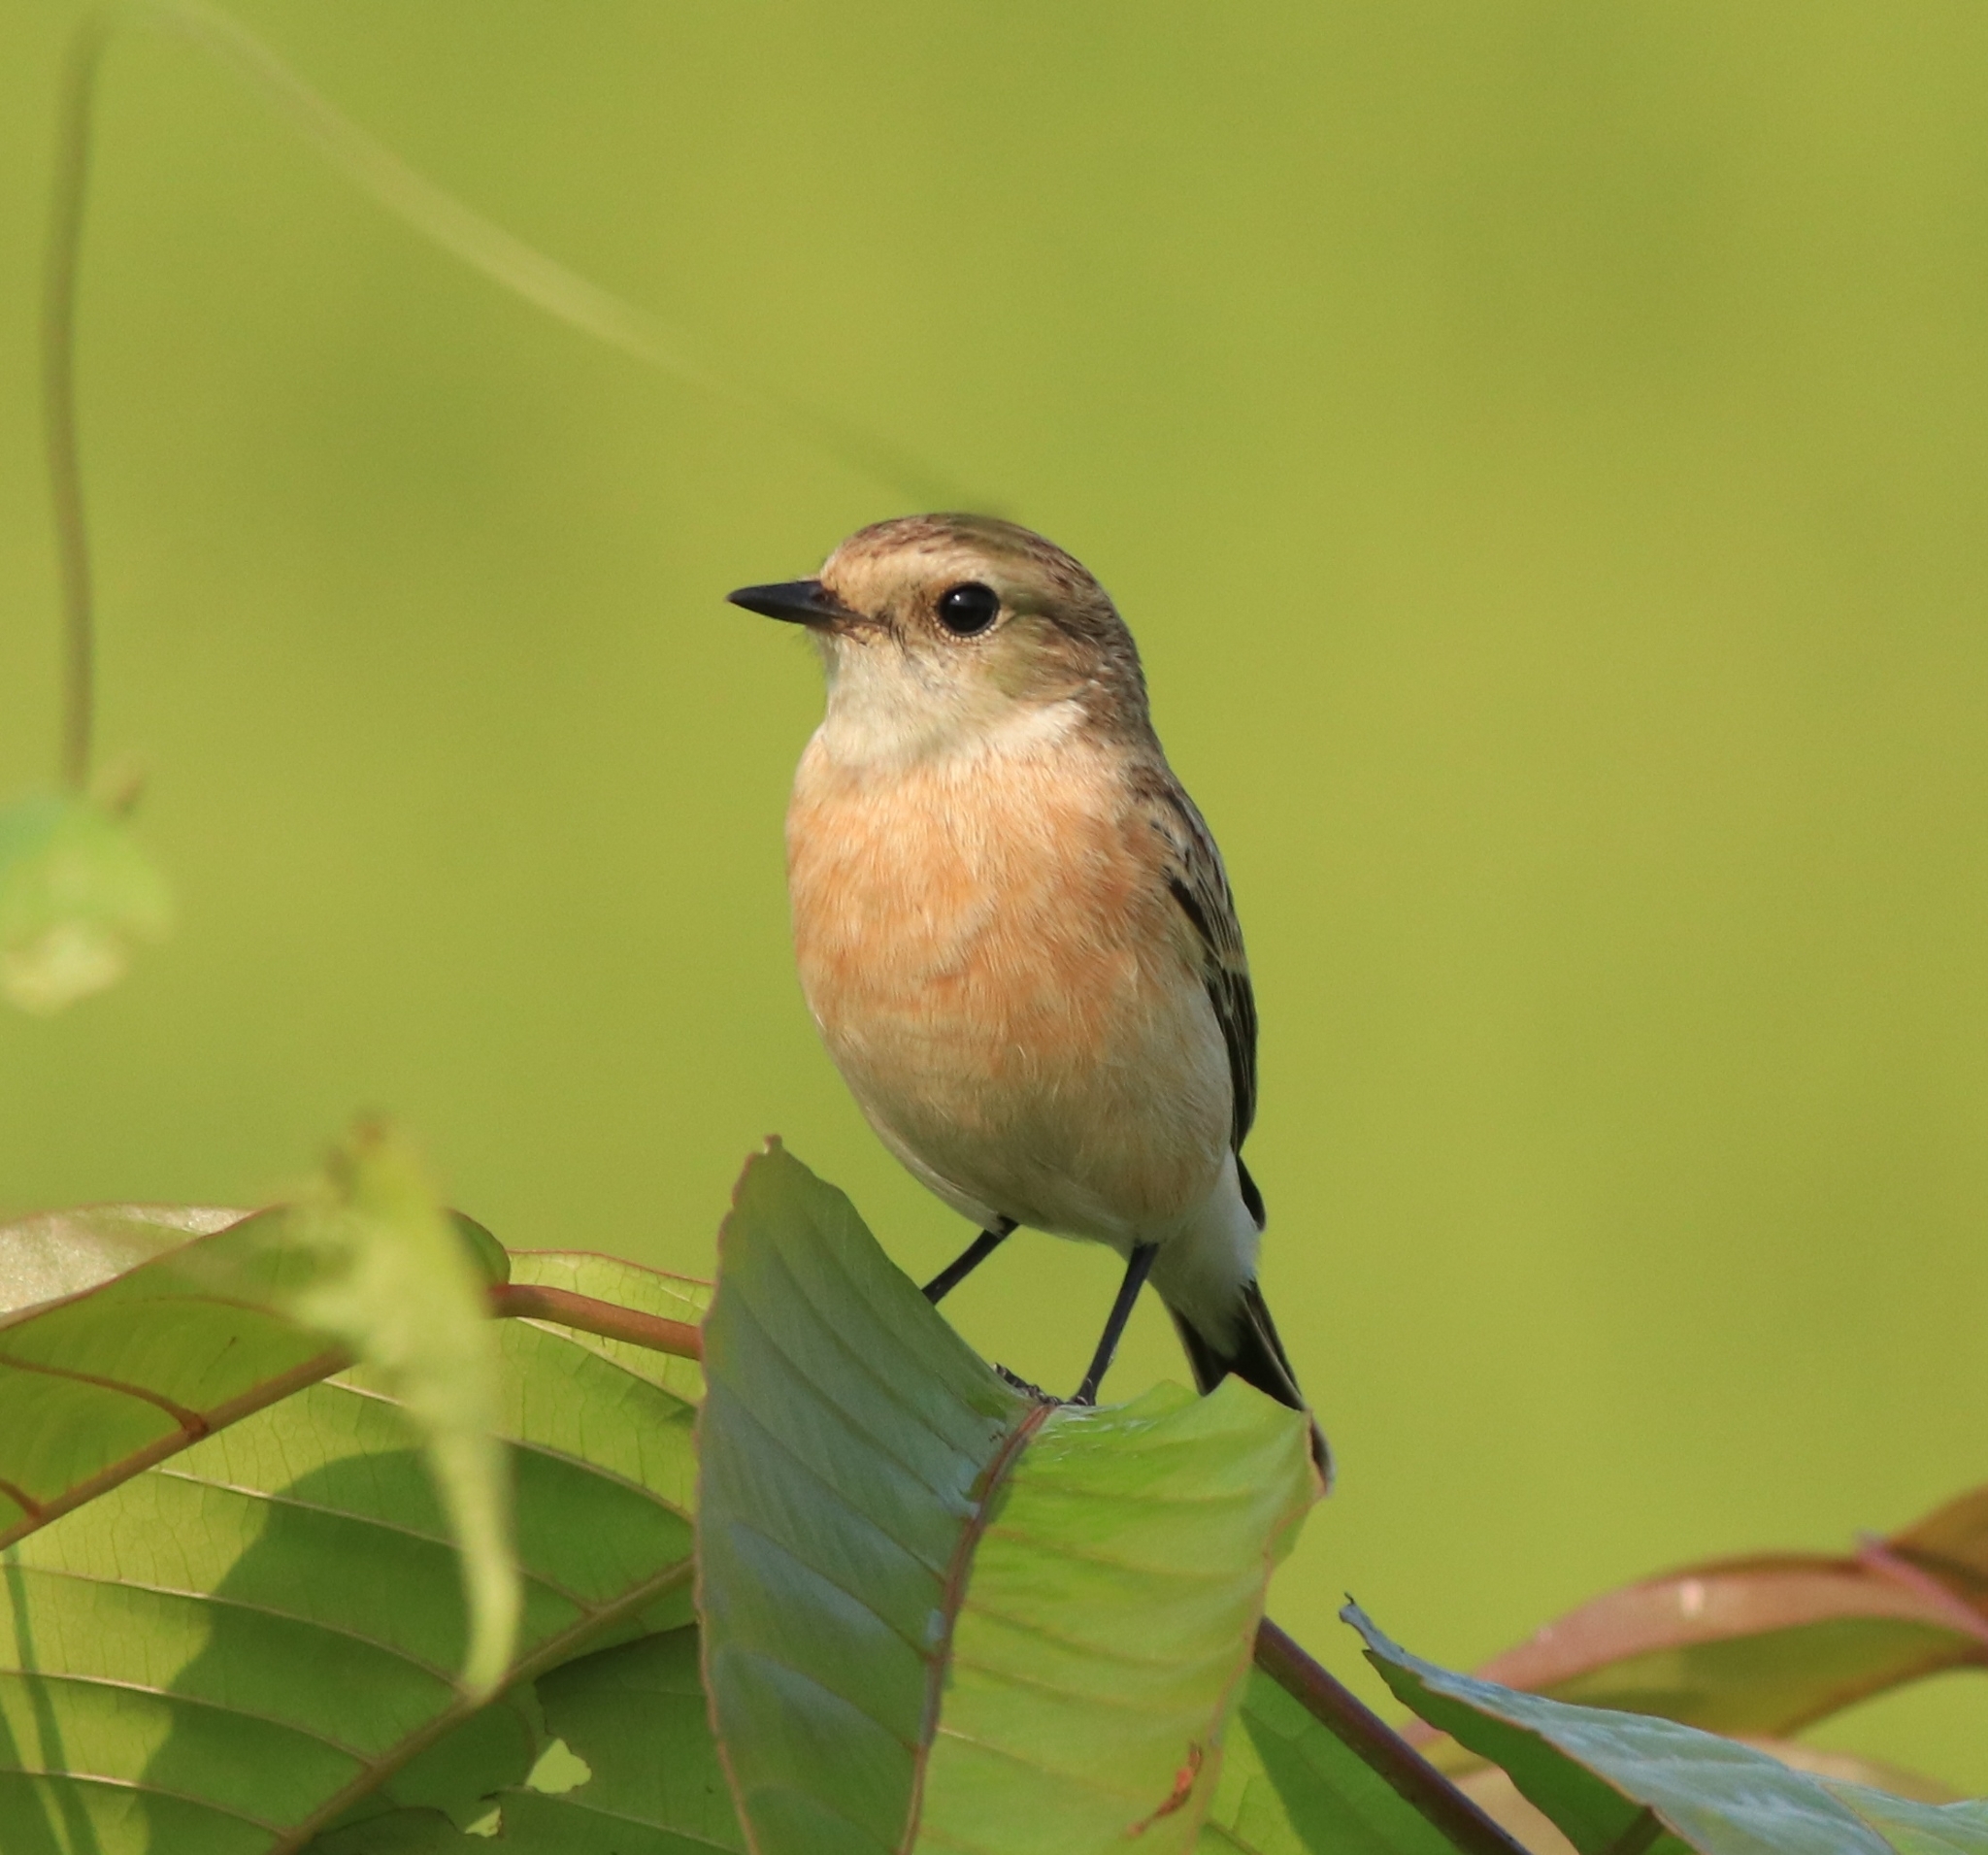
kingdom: Animalia
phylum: Chordata
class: Aves
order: Passeriformes
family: Muscicapidae
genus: Saxicola
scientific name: Saxicola maurus
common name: Siberian stonechat
